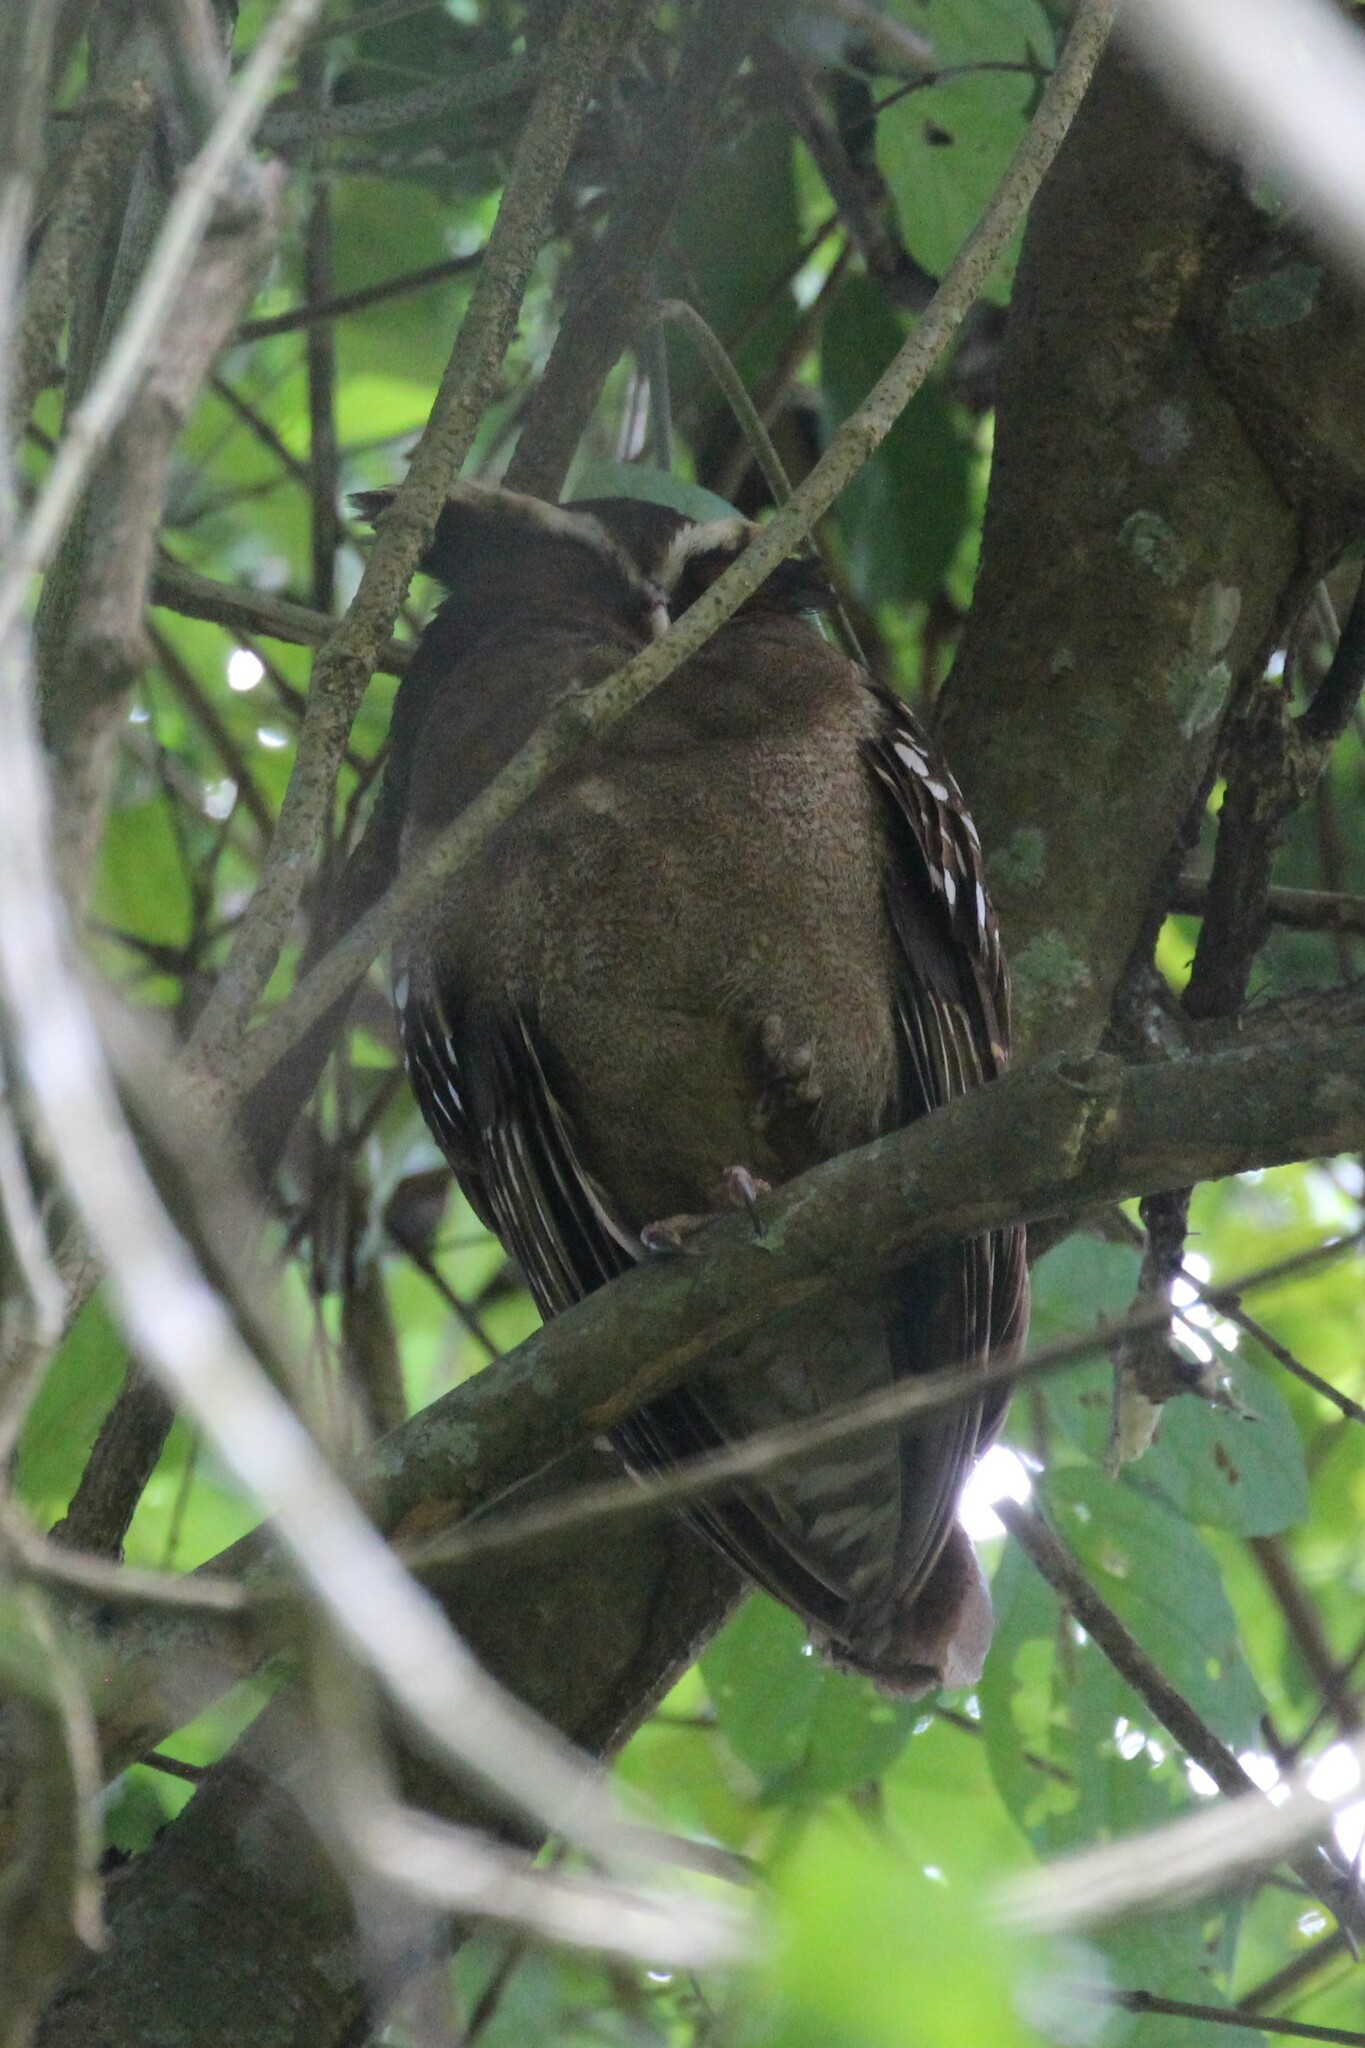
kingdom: Animalia
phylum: Chordata
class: Aves
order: Strigiformes
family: Strigidae
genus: Lophostrix
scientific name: Lophostrix cristata
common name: Crested owl
